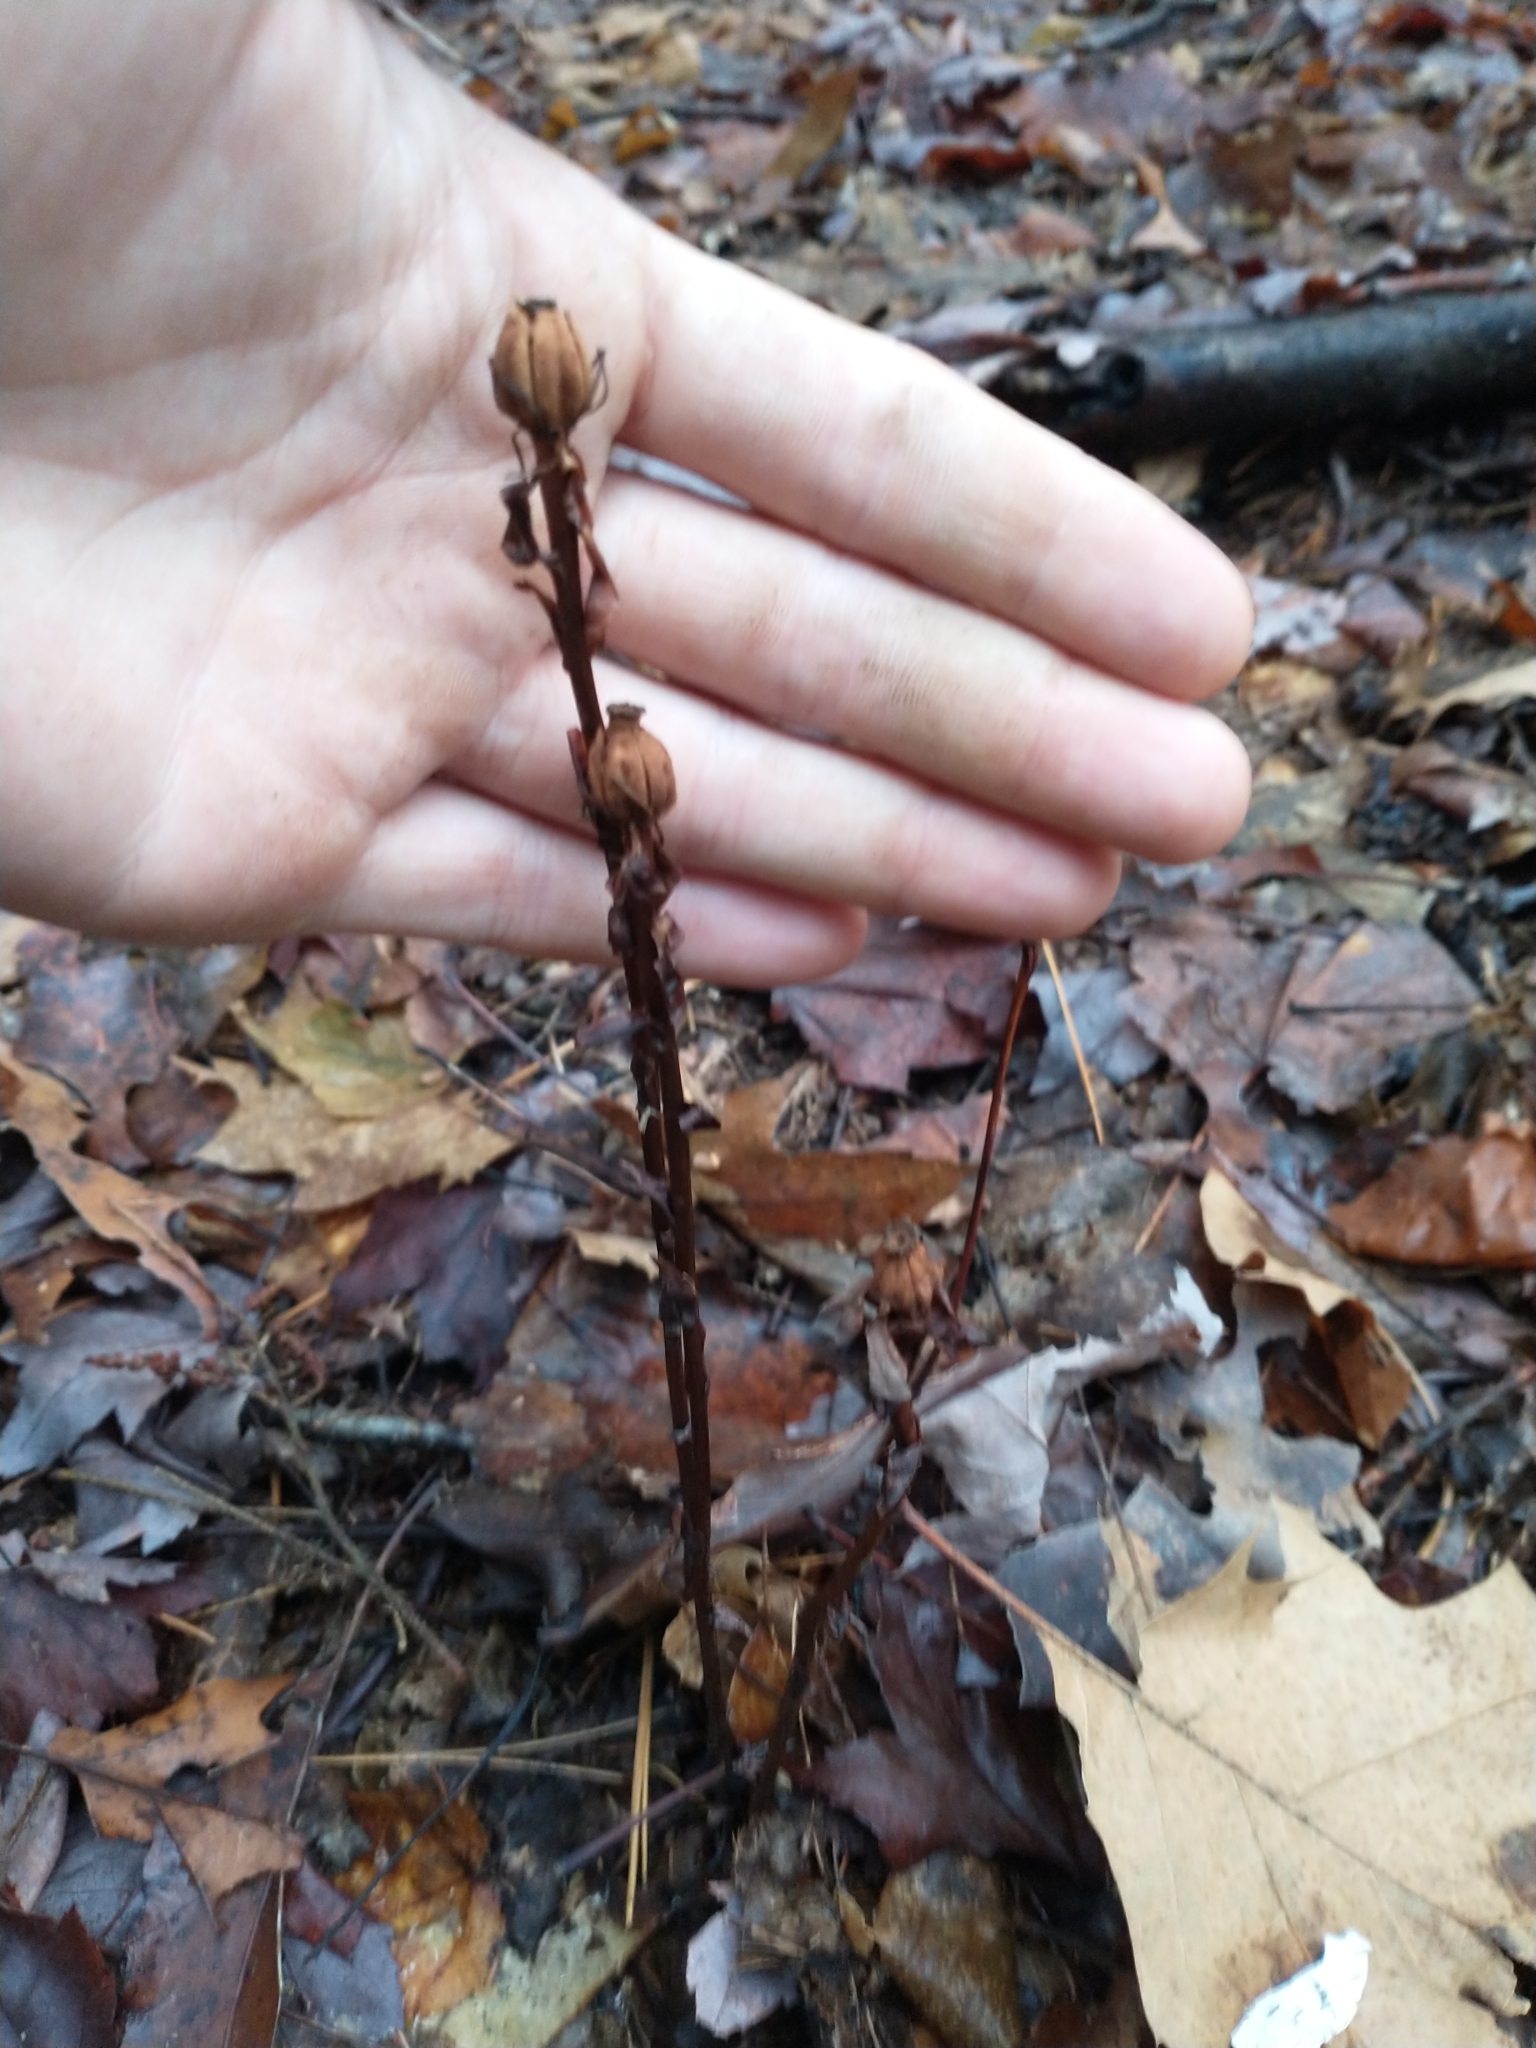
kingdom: Plantae
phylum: Tracheophyta
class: Magnoliopsida
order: Ericales
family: Ericaceae
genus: Monotropa
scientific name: Monotropa uniflora
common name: Convulsion root
